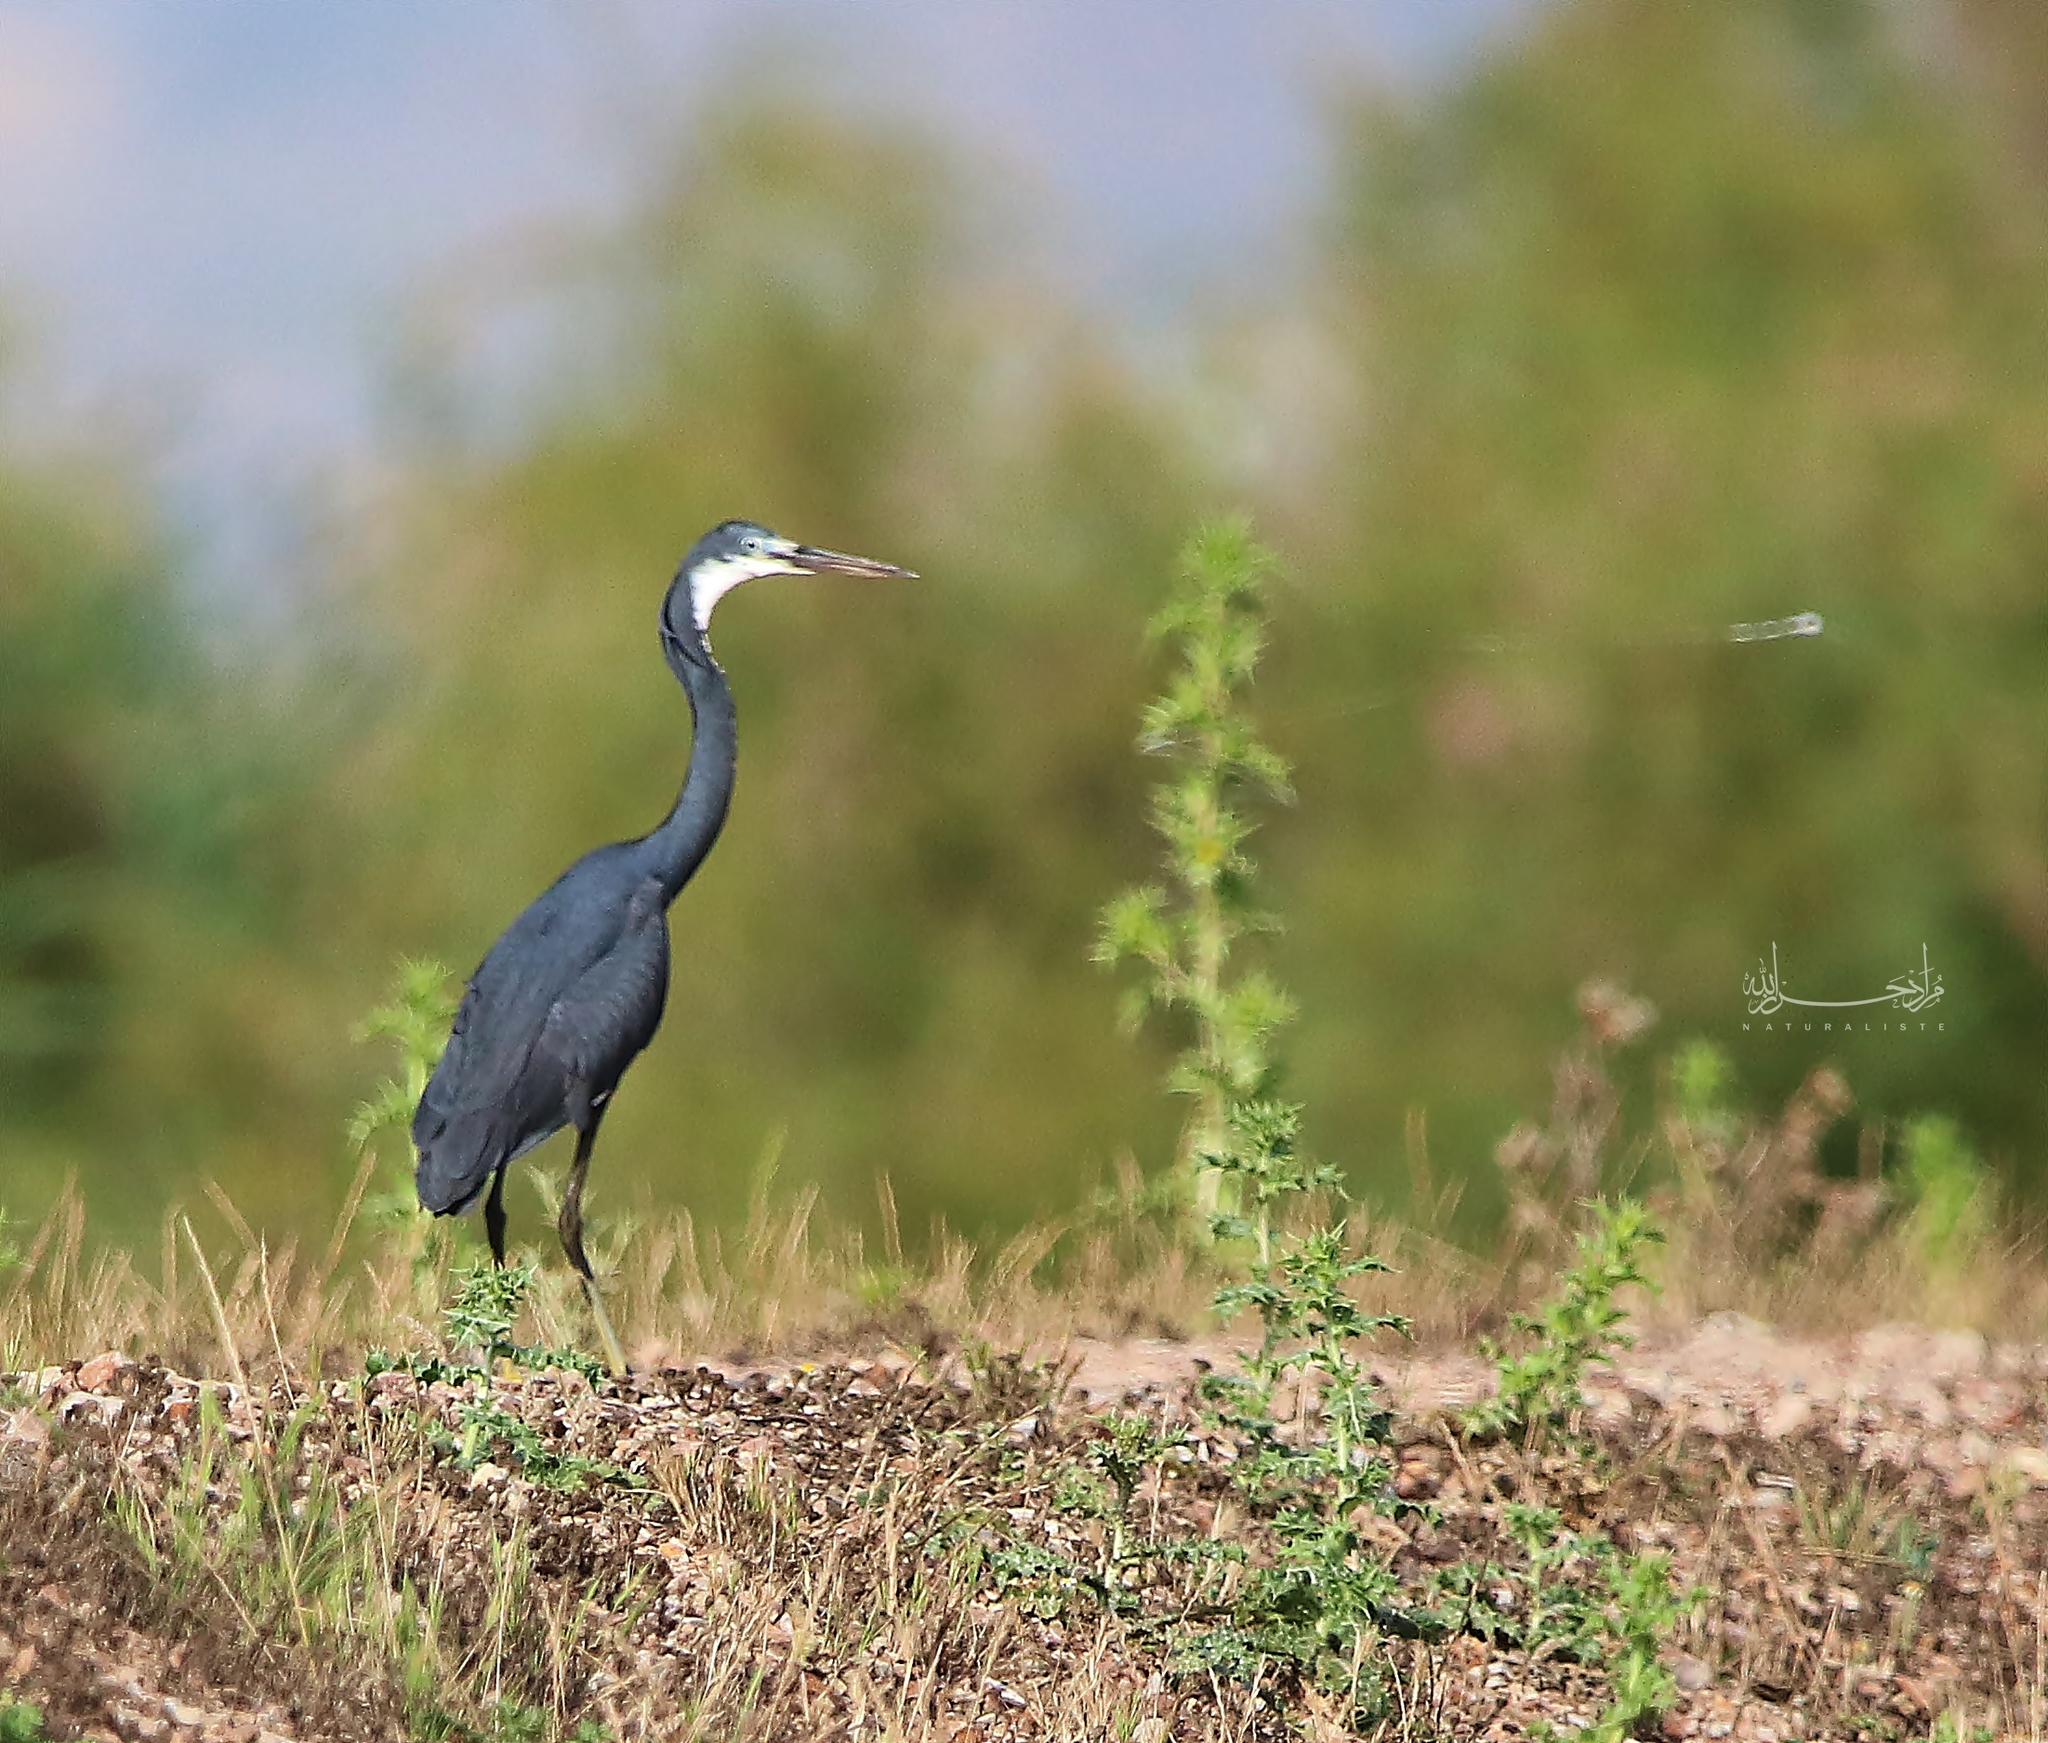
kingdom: Animalia
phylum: Chordata
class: Aves
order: Pelecaniformes
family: Ardeidae
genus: Egretta
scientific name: Egretta gularis
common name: Western reef-heron
